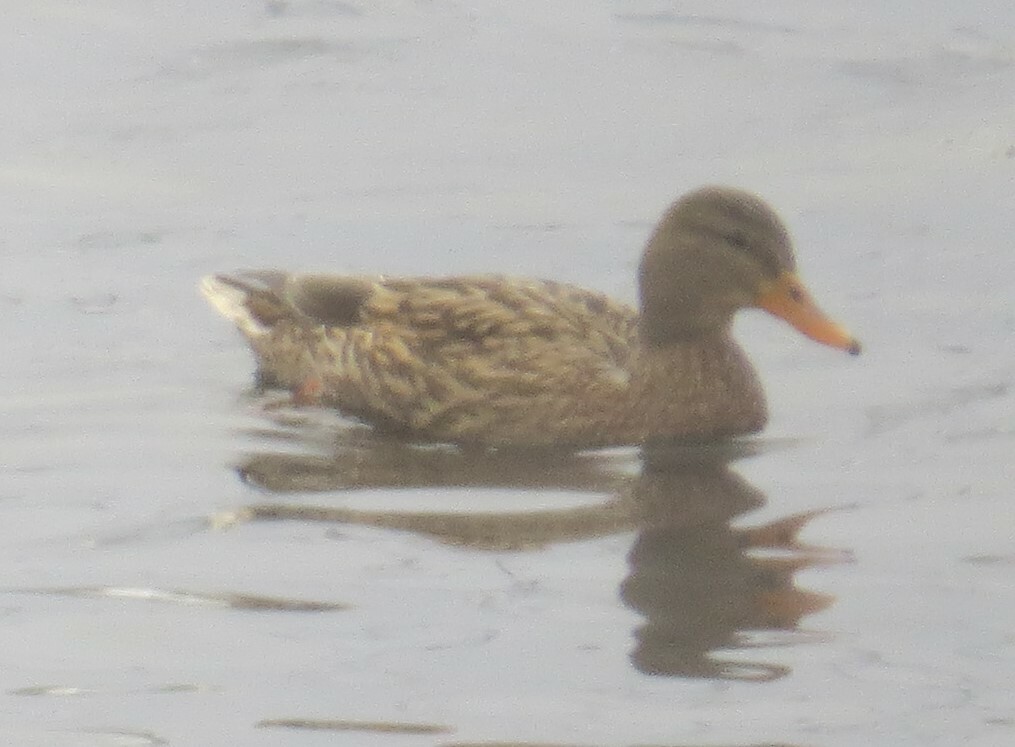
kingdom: Animalia
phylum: Chordata
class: Aves
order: Anseriformes
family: Anatidae
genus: Anas
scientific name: Anas platyrhynchos
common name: Mallard
